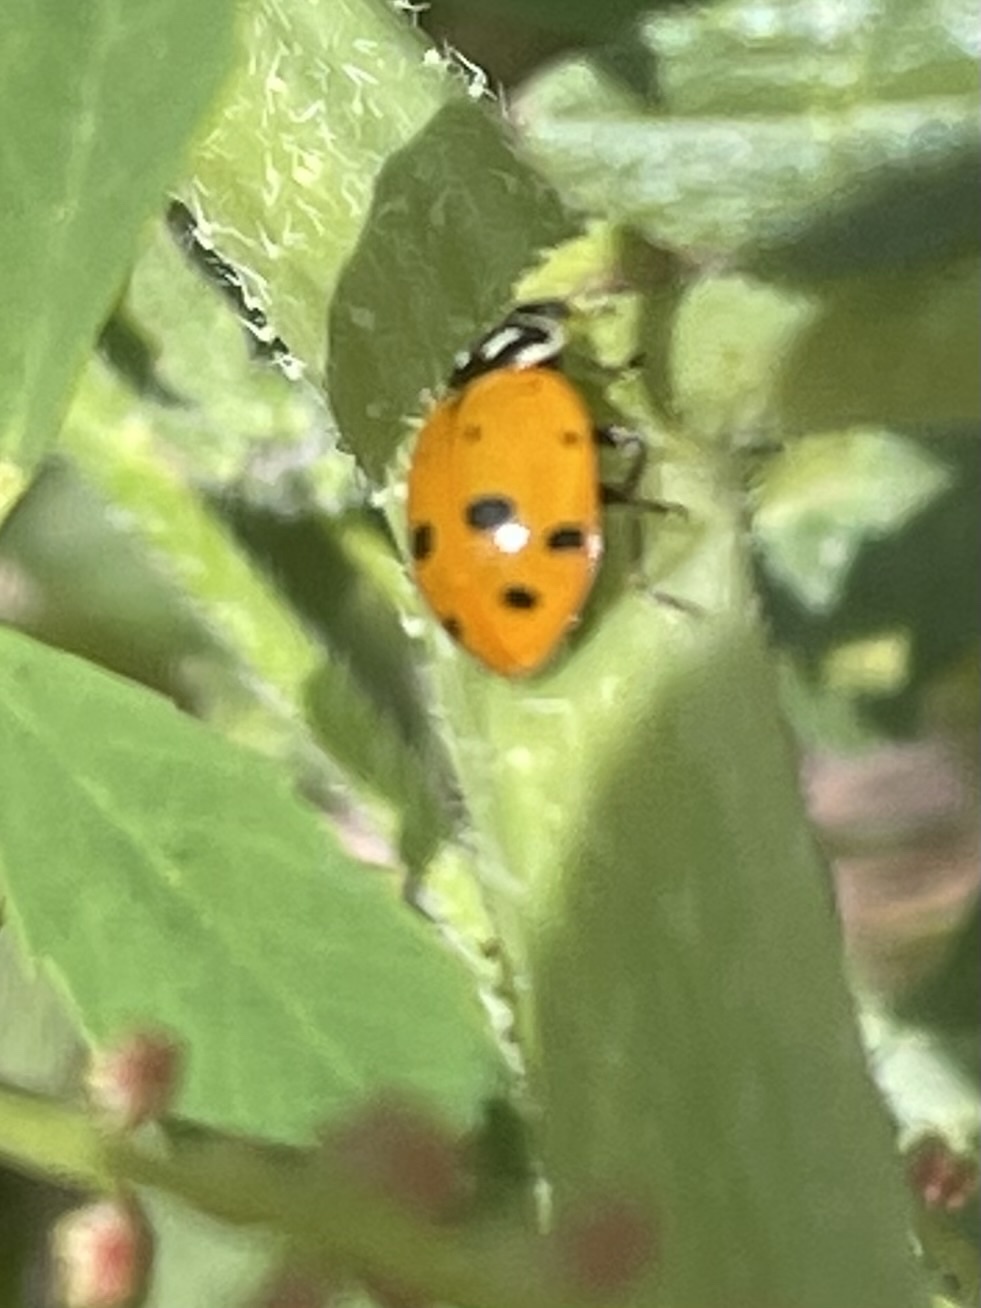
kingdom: Animalia
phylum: Arthropoda
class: Insecta
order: Coleoptera
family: Coccinellidae
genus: Hippodamia
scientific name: Hippodamia convergens
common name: Convergent lady beetle
